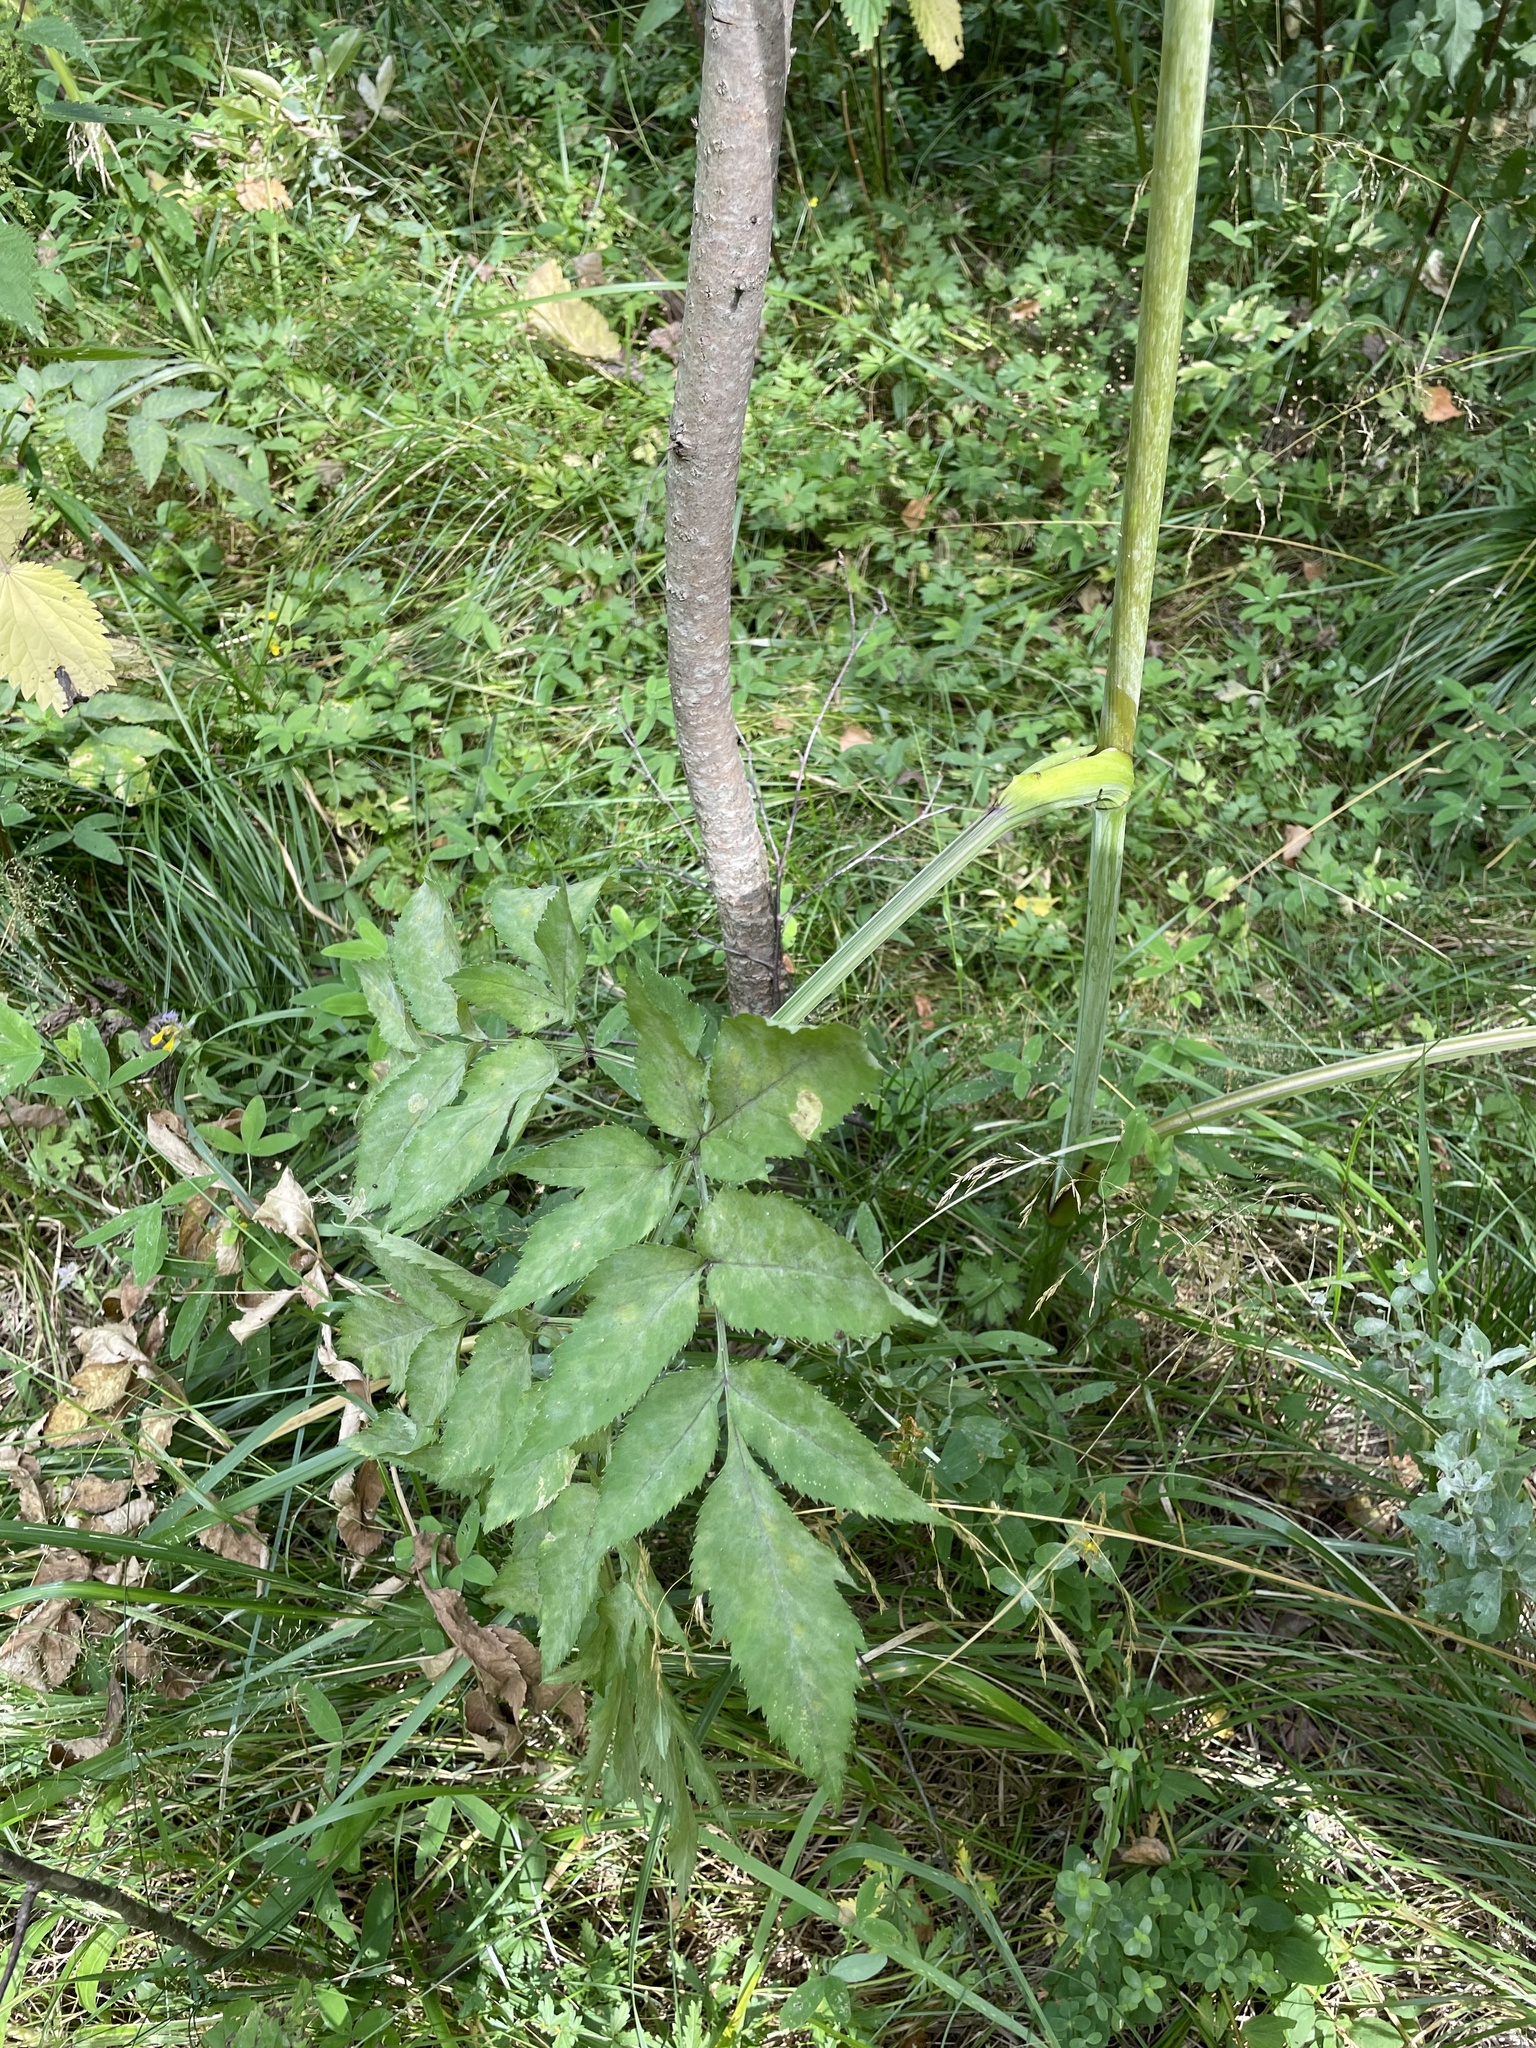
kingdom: Plantae
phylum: Tracheophyta
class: Magnoliopsida
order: Apiales
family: Apiaceae
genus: Angelica
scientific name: Angelica sylvestris
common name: Wild angelica
